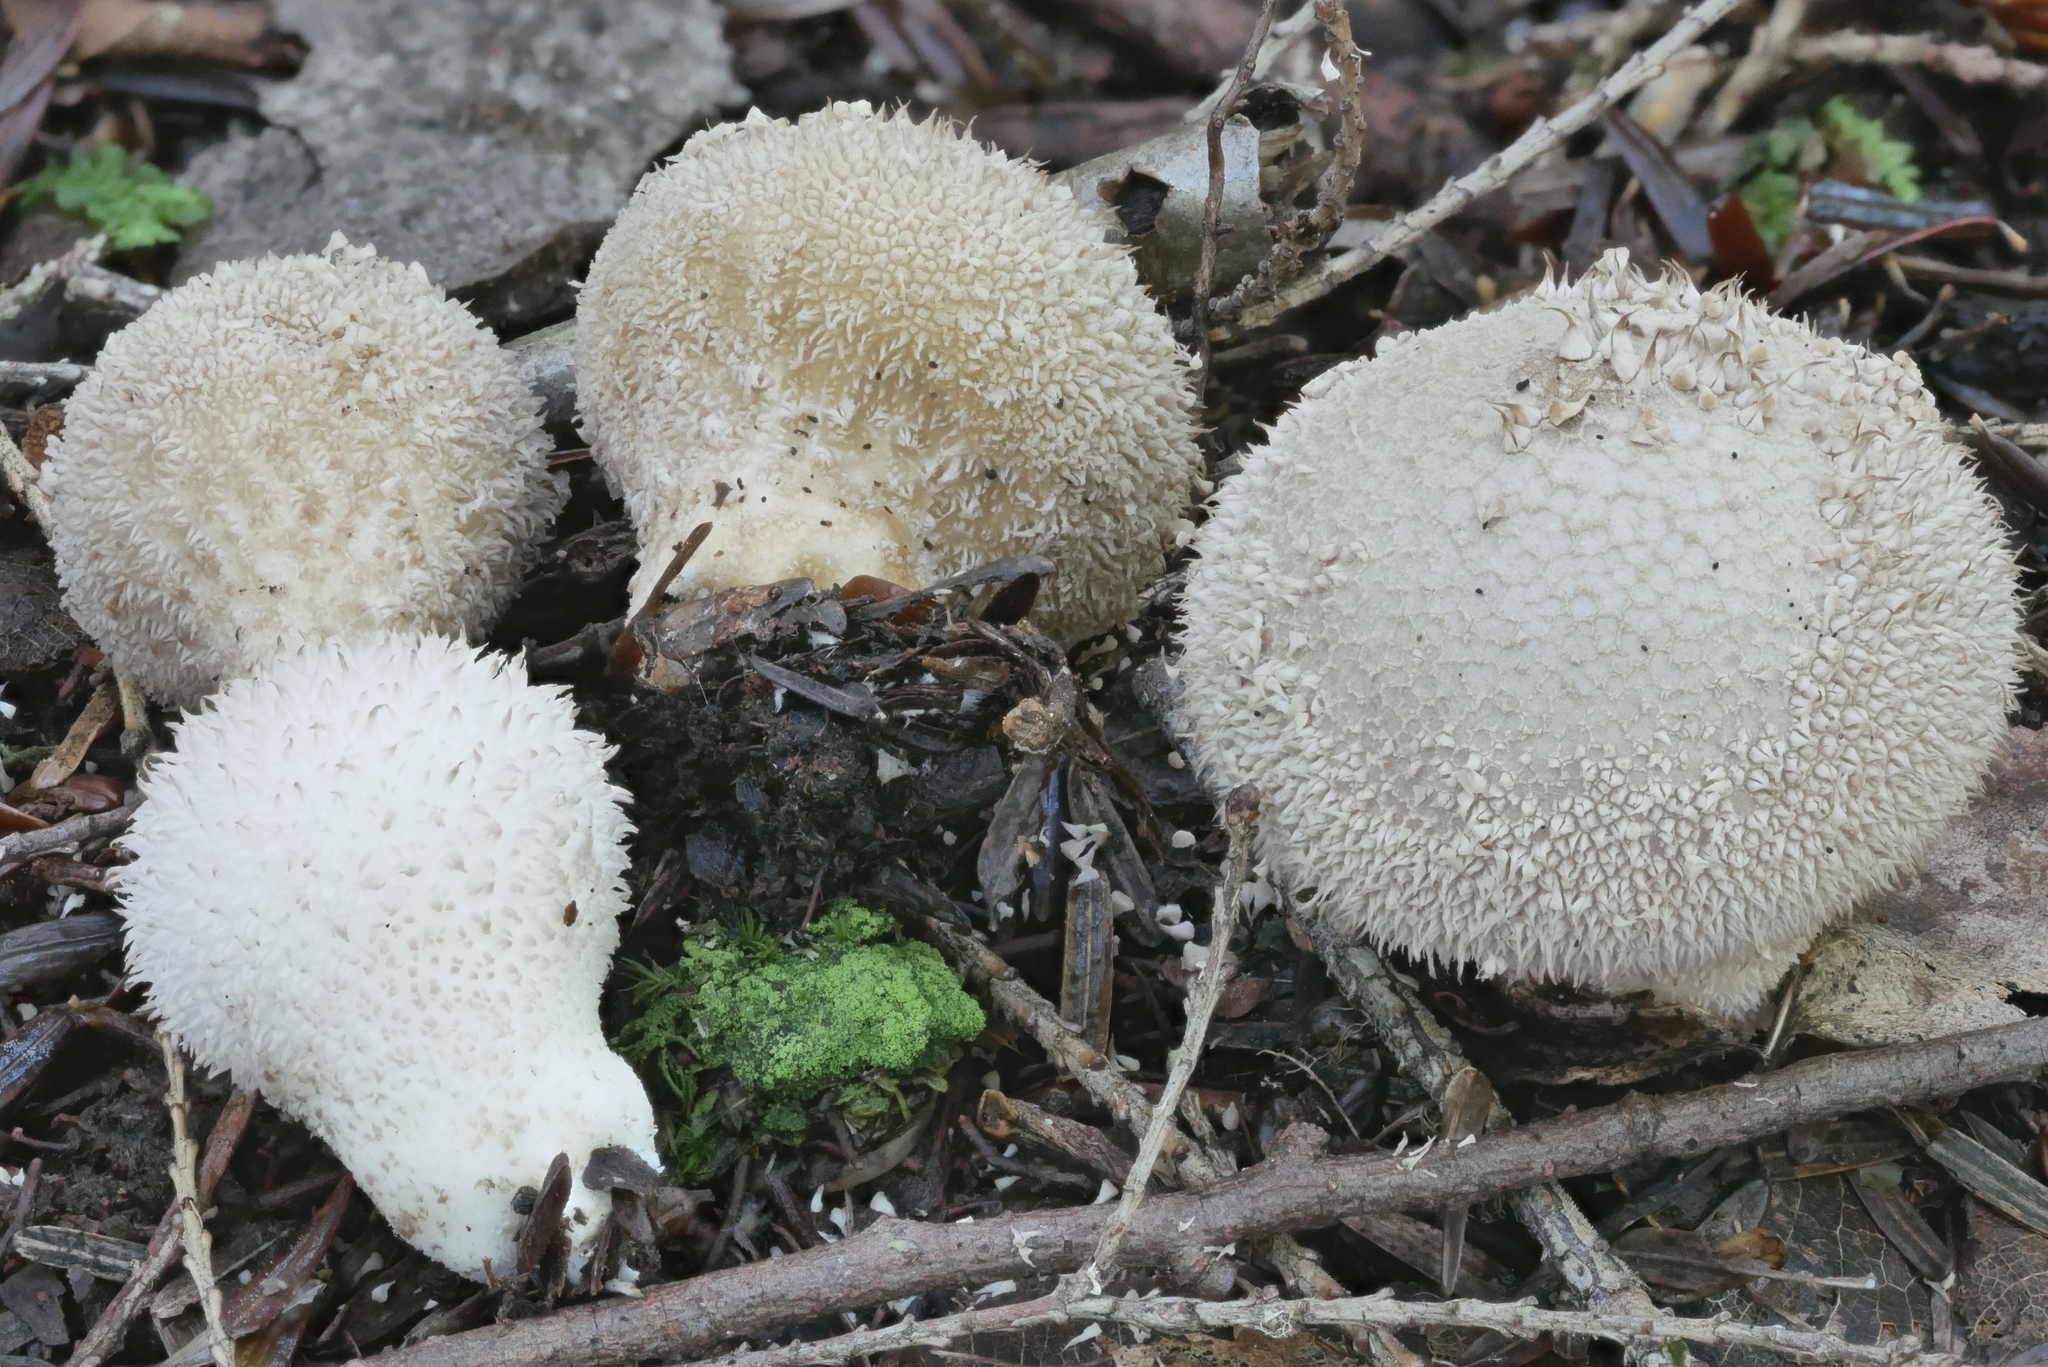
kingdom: Fungi
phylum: Basidiomycota
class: Agaricomycetes
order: Agaricales
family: Lycoperdaceae
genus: Lycoperdon
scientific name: Lycoperdon americanum
